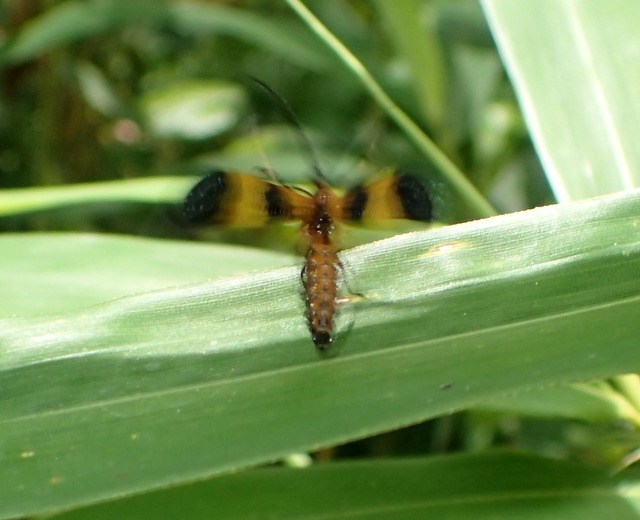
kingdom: Animalia
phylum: Arthropoda
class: Insecta
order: Coleoptera
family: Lycidae
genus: Calopteron
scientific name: Calopteron terminale
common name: End band net-winged beetle
